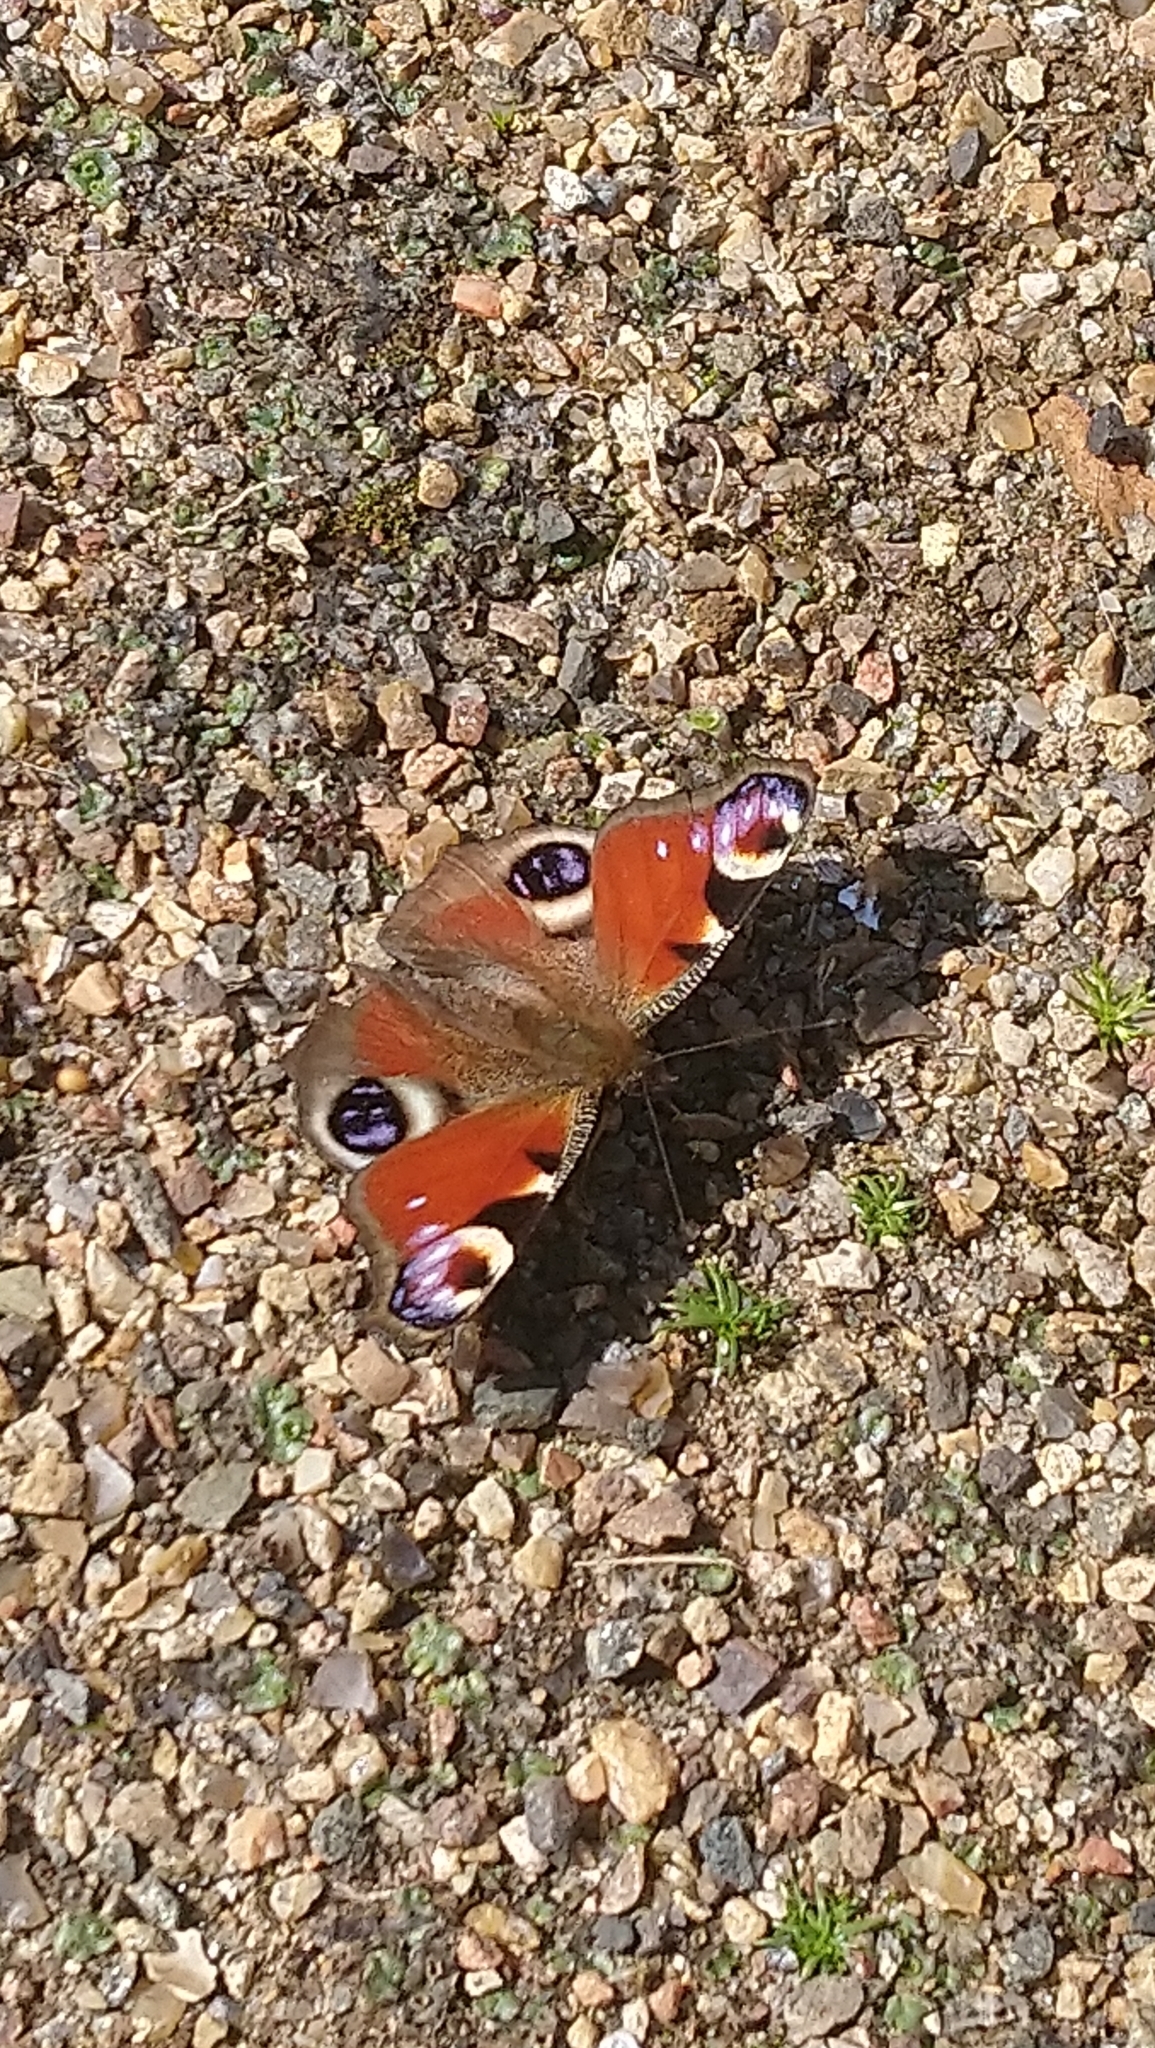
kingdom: Animalia
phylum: Arthropoda
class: Insecta
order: Lepidoptera
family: Nymphalidae
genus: Aglais
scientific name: Aglais io
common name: Peacock
